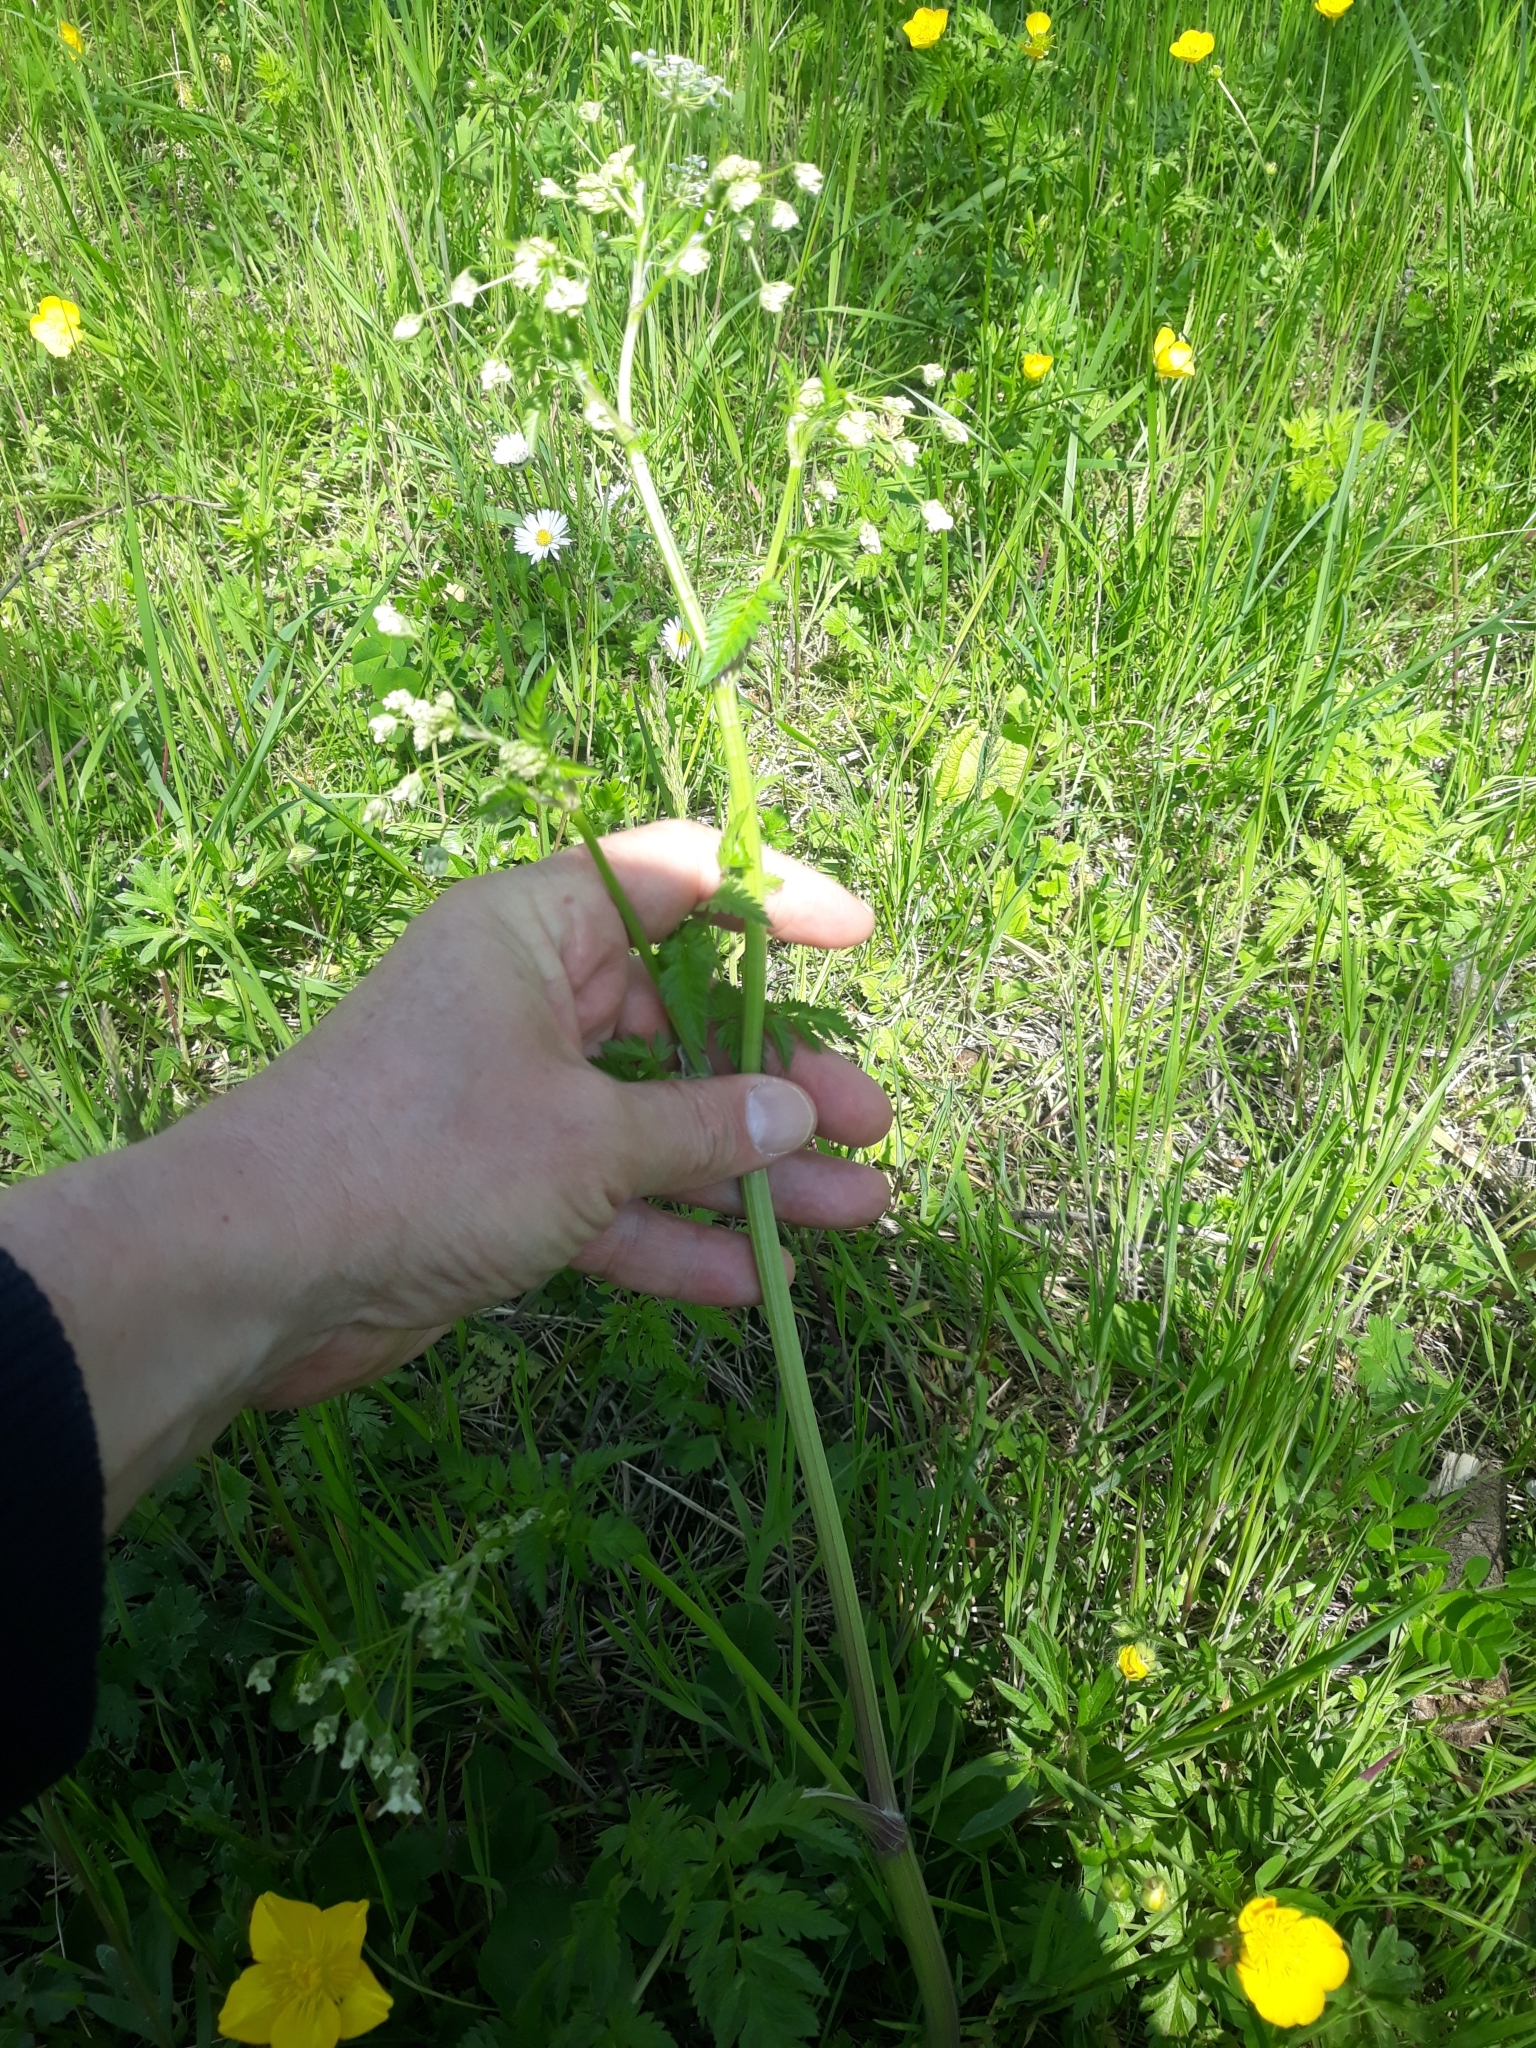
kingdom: Plantae
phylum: Tracheophyta
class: Magnoliopsida
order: Apiales
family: Apiaceae
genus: Anthriscus
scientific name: Anthriscus sylvestris
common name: Cow parsley
